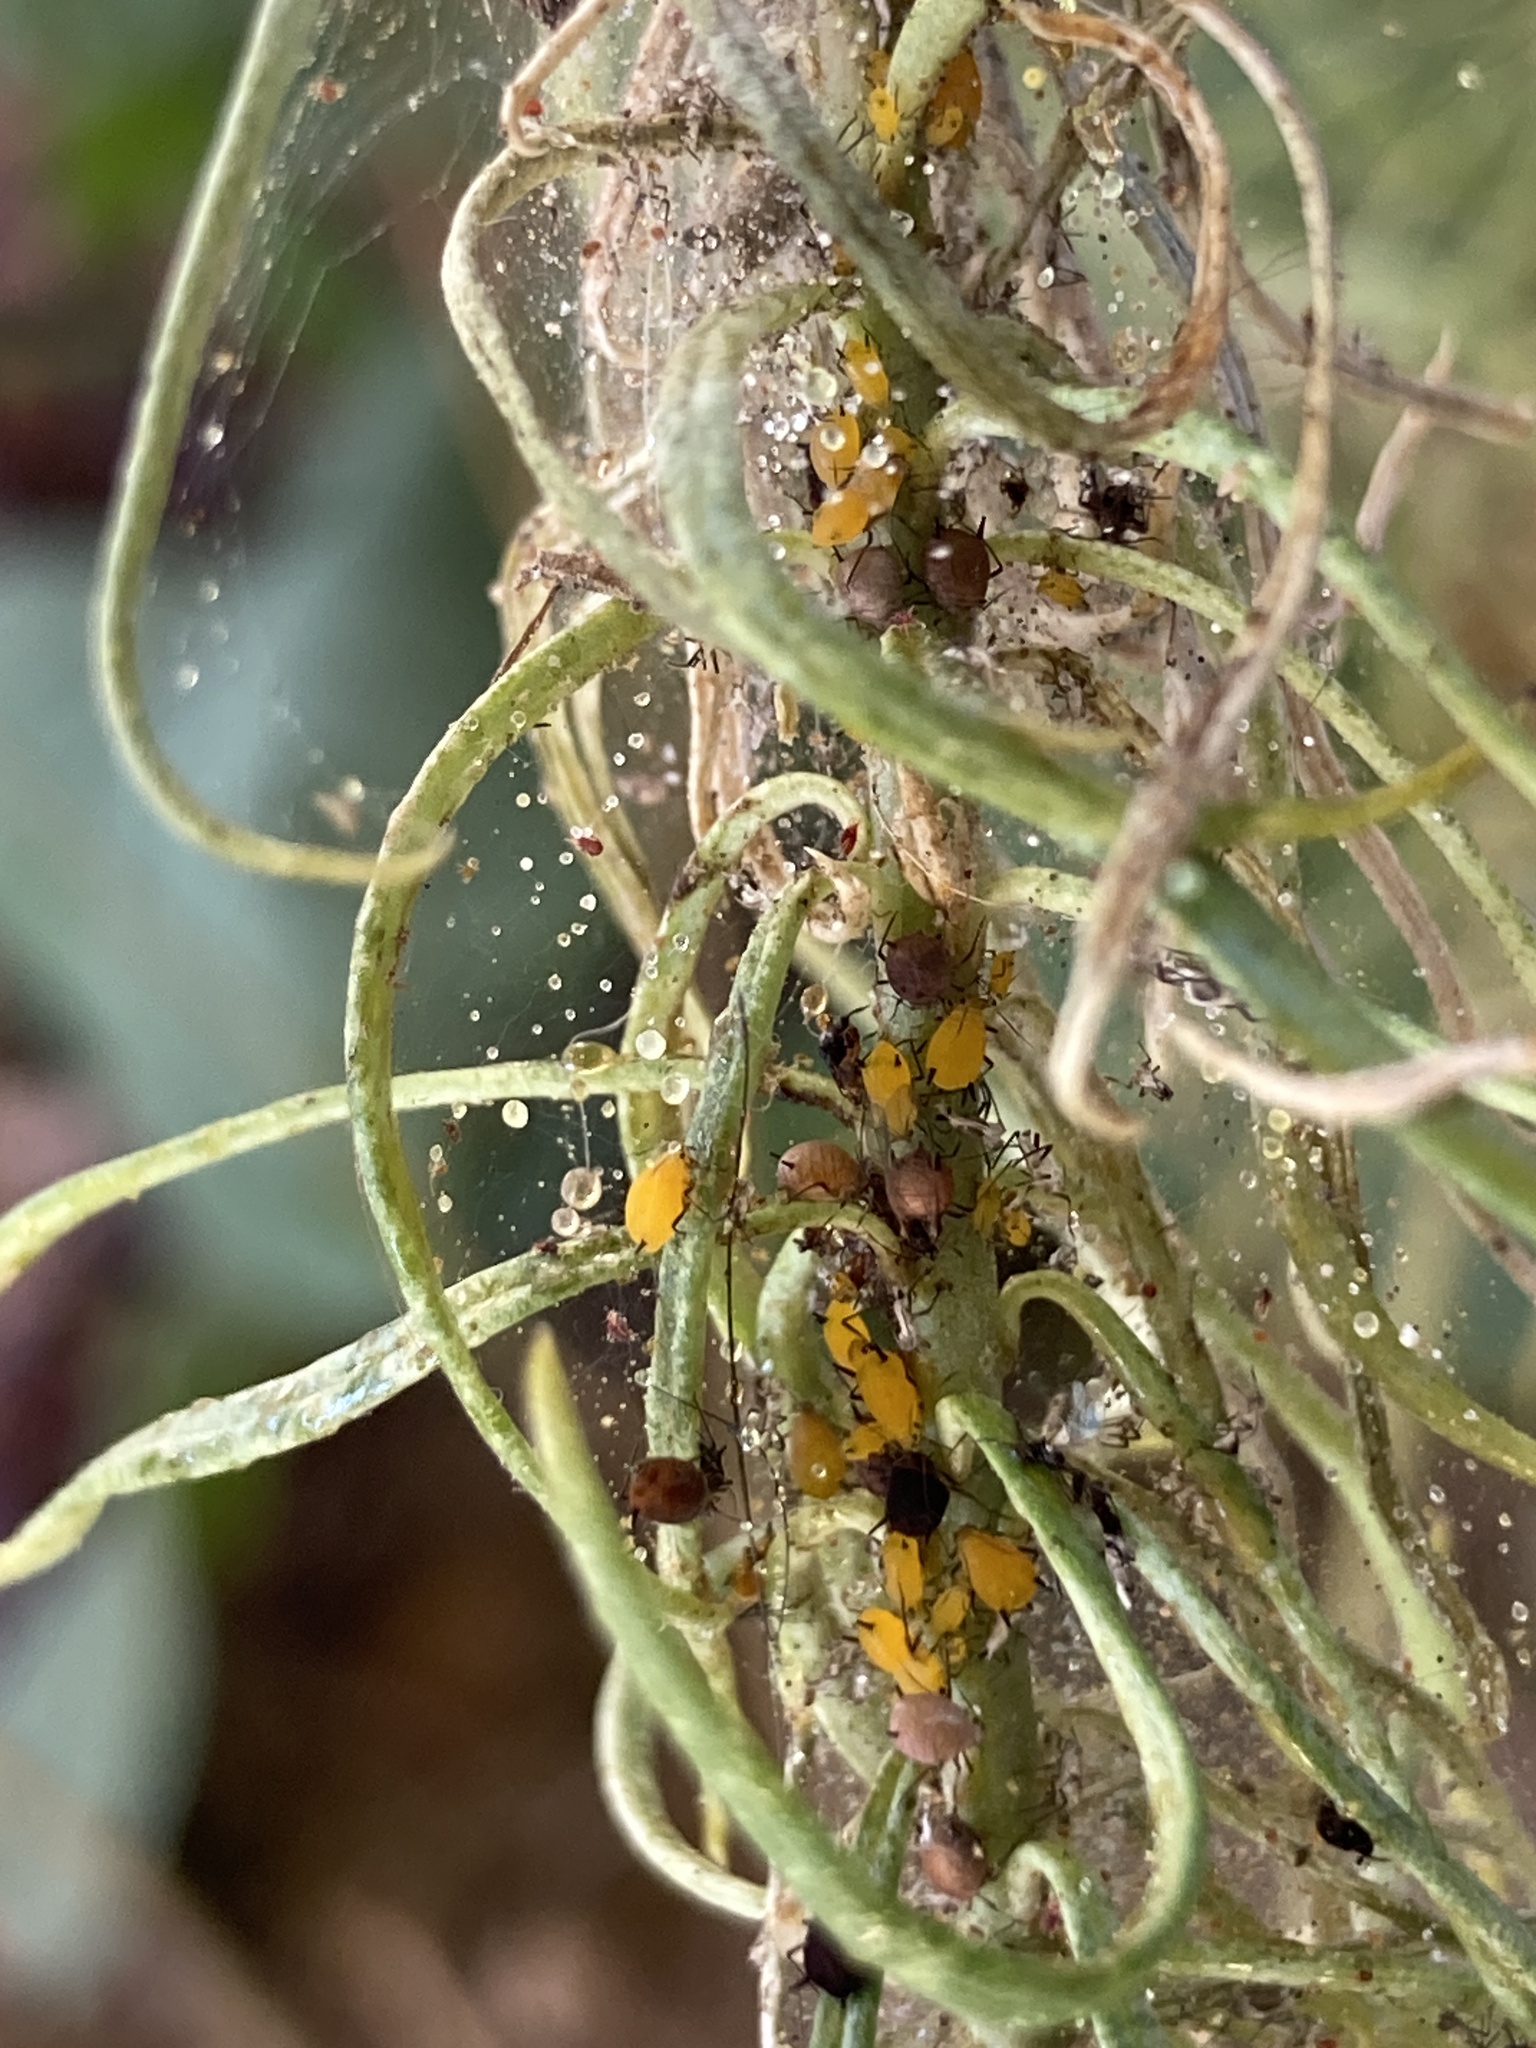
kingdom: Animalia
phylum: Arthropoda
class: Insecta
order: Hemiptera
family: Aphididae
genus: Aphis
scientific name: Aphis nerii
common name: Oleander aphid
